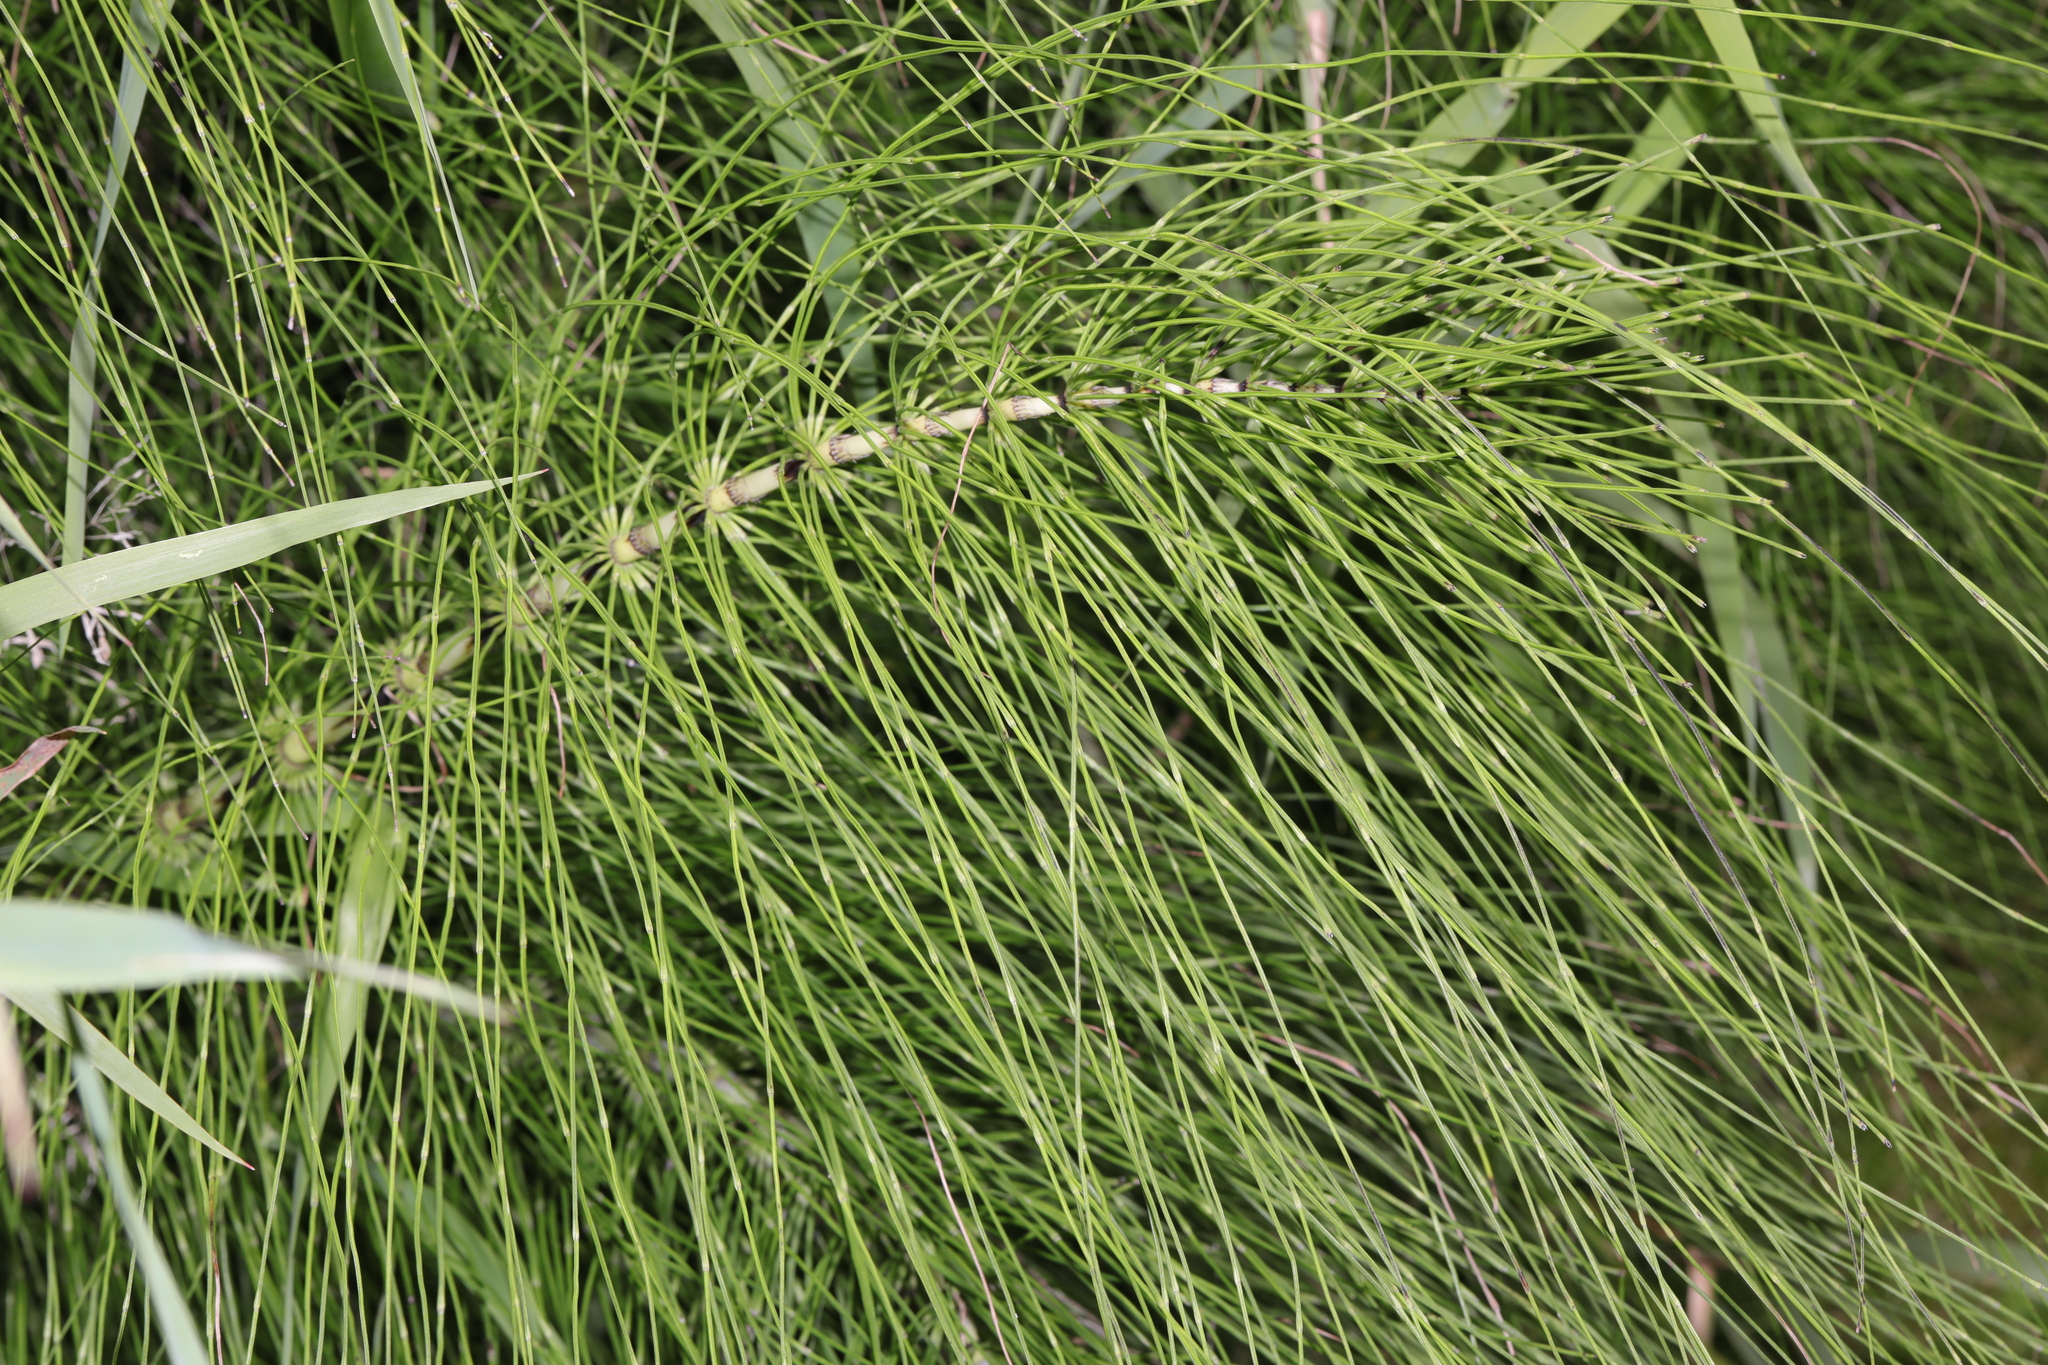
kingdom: Plantae
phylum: Tracheophyta
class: Polypodiopsida
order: Equisetales
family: Equisetaceae
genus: Equisetum
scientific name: Equisetum telmateia
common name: Great horsetail
